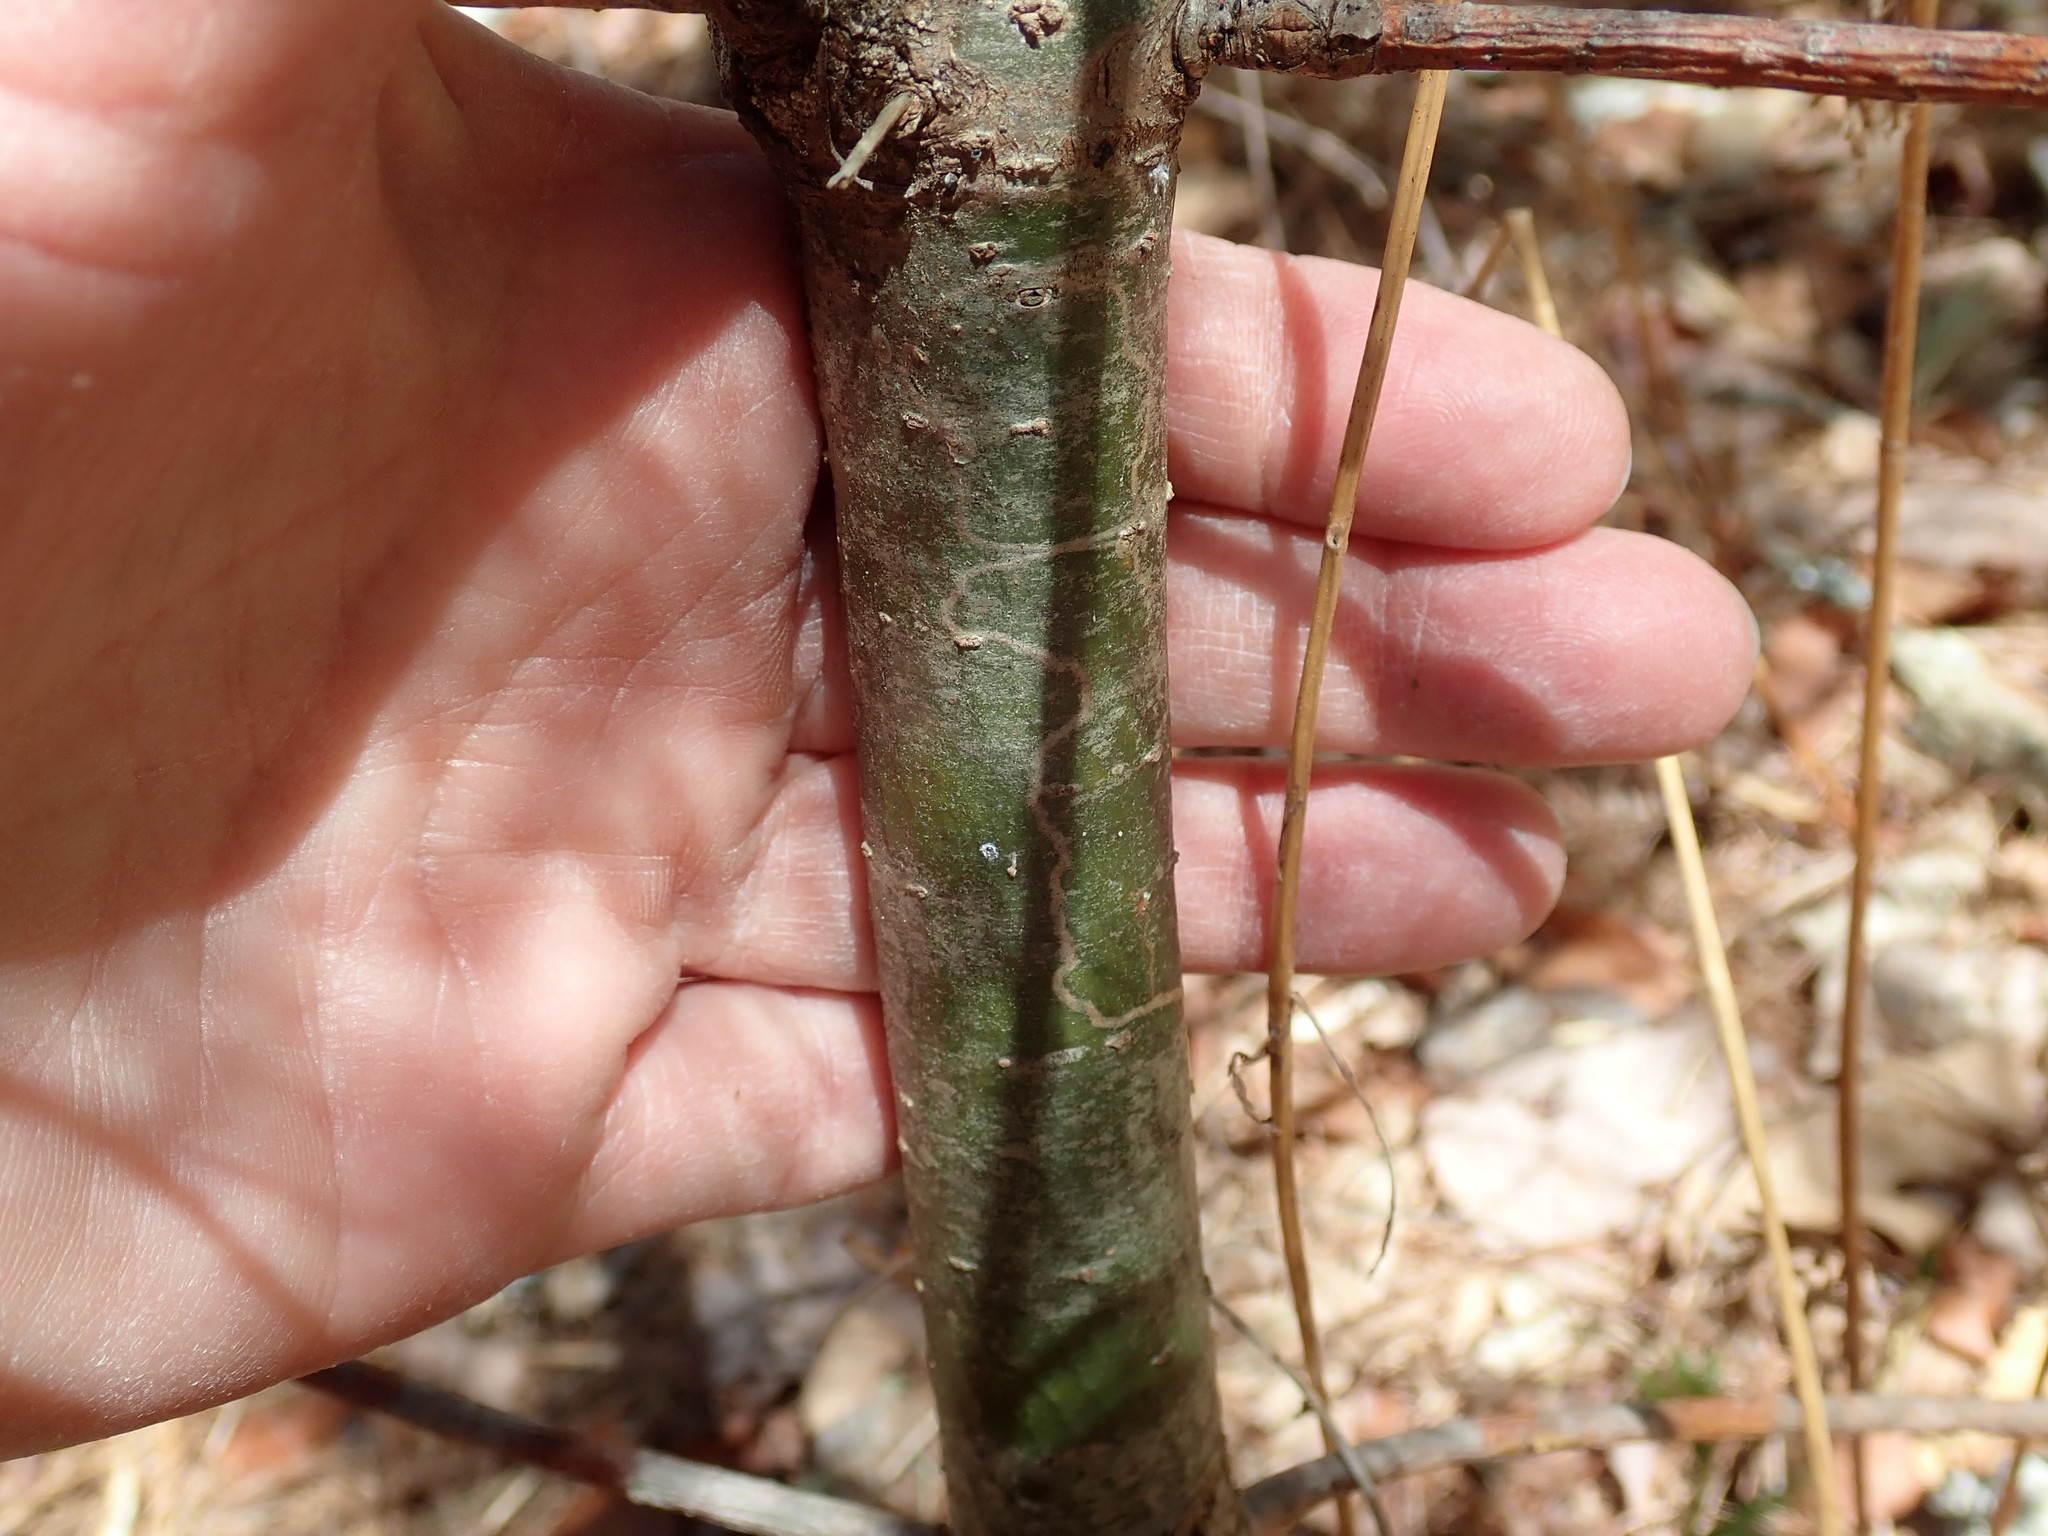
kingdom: Animalia
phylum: Arthropoda
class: Insecta
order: Lepidoptera
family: Gracillariidae
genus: Marmara
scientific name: Marmara fasciella
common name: White pine barkminer moth
